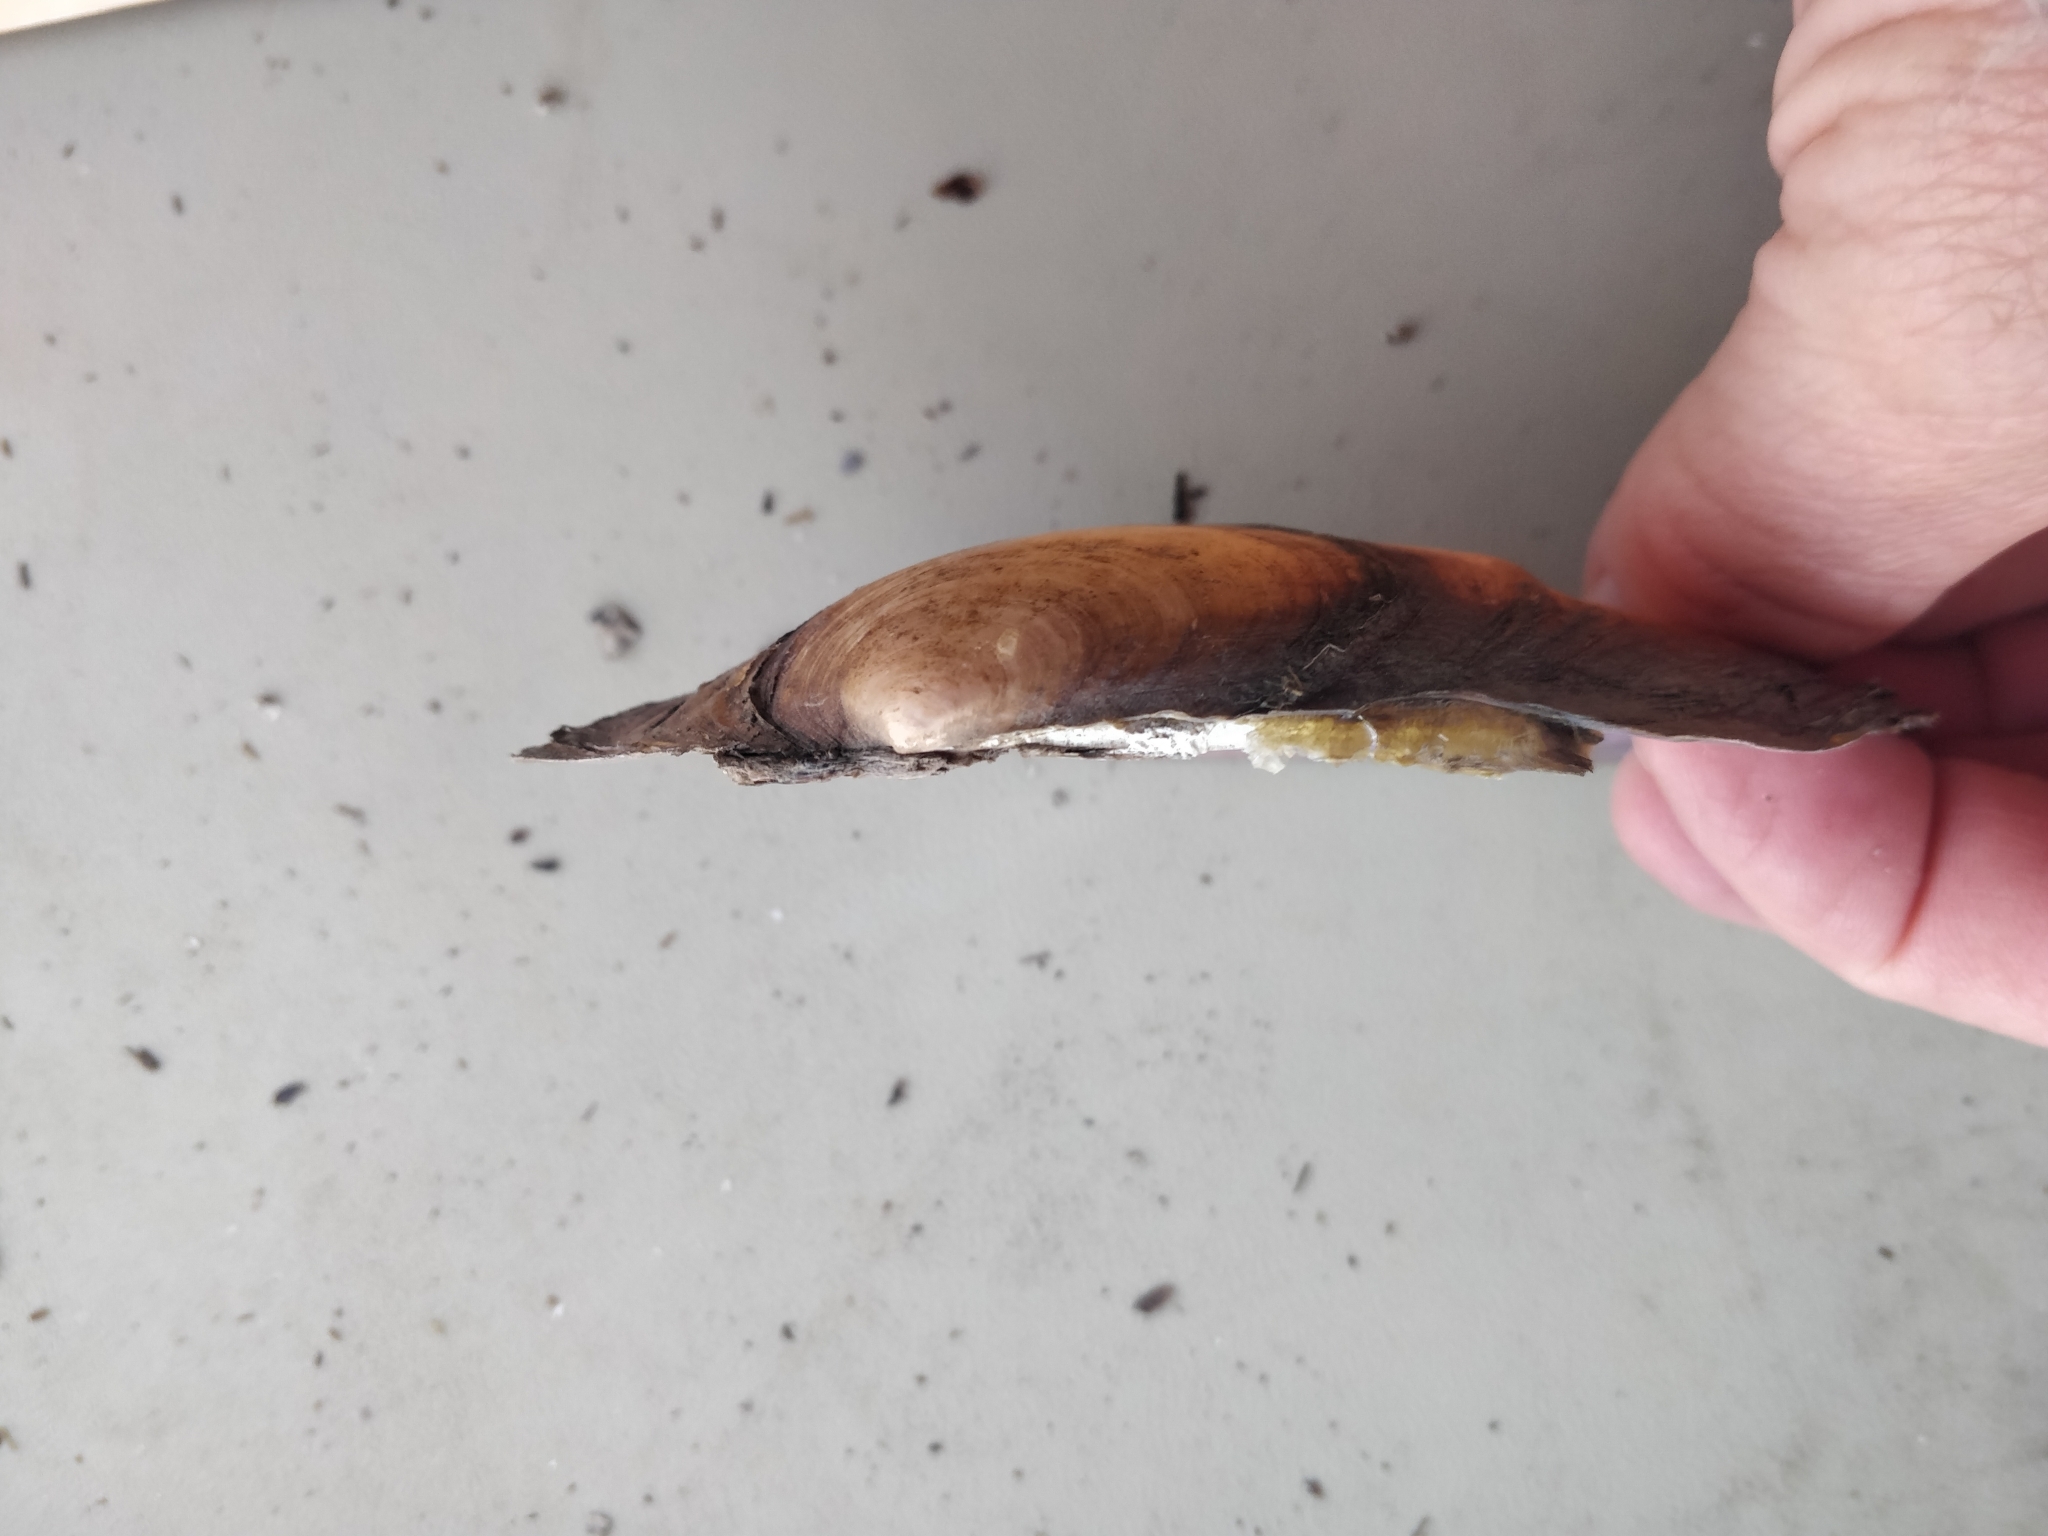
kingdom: Animalia
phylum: Mollusca
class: Bivalvia
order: Unionida
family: Unionidae
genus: Potamilus
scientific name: Potamilus ohiensis
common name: Pink papershell
